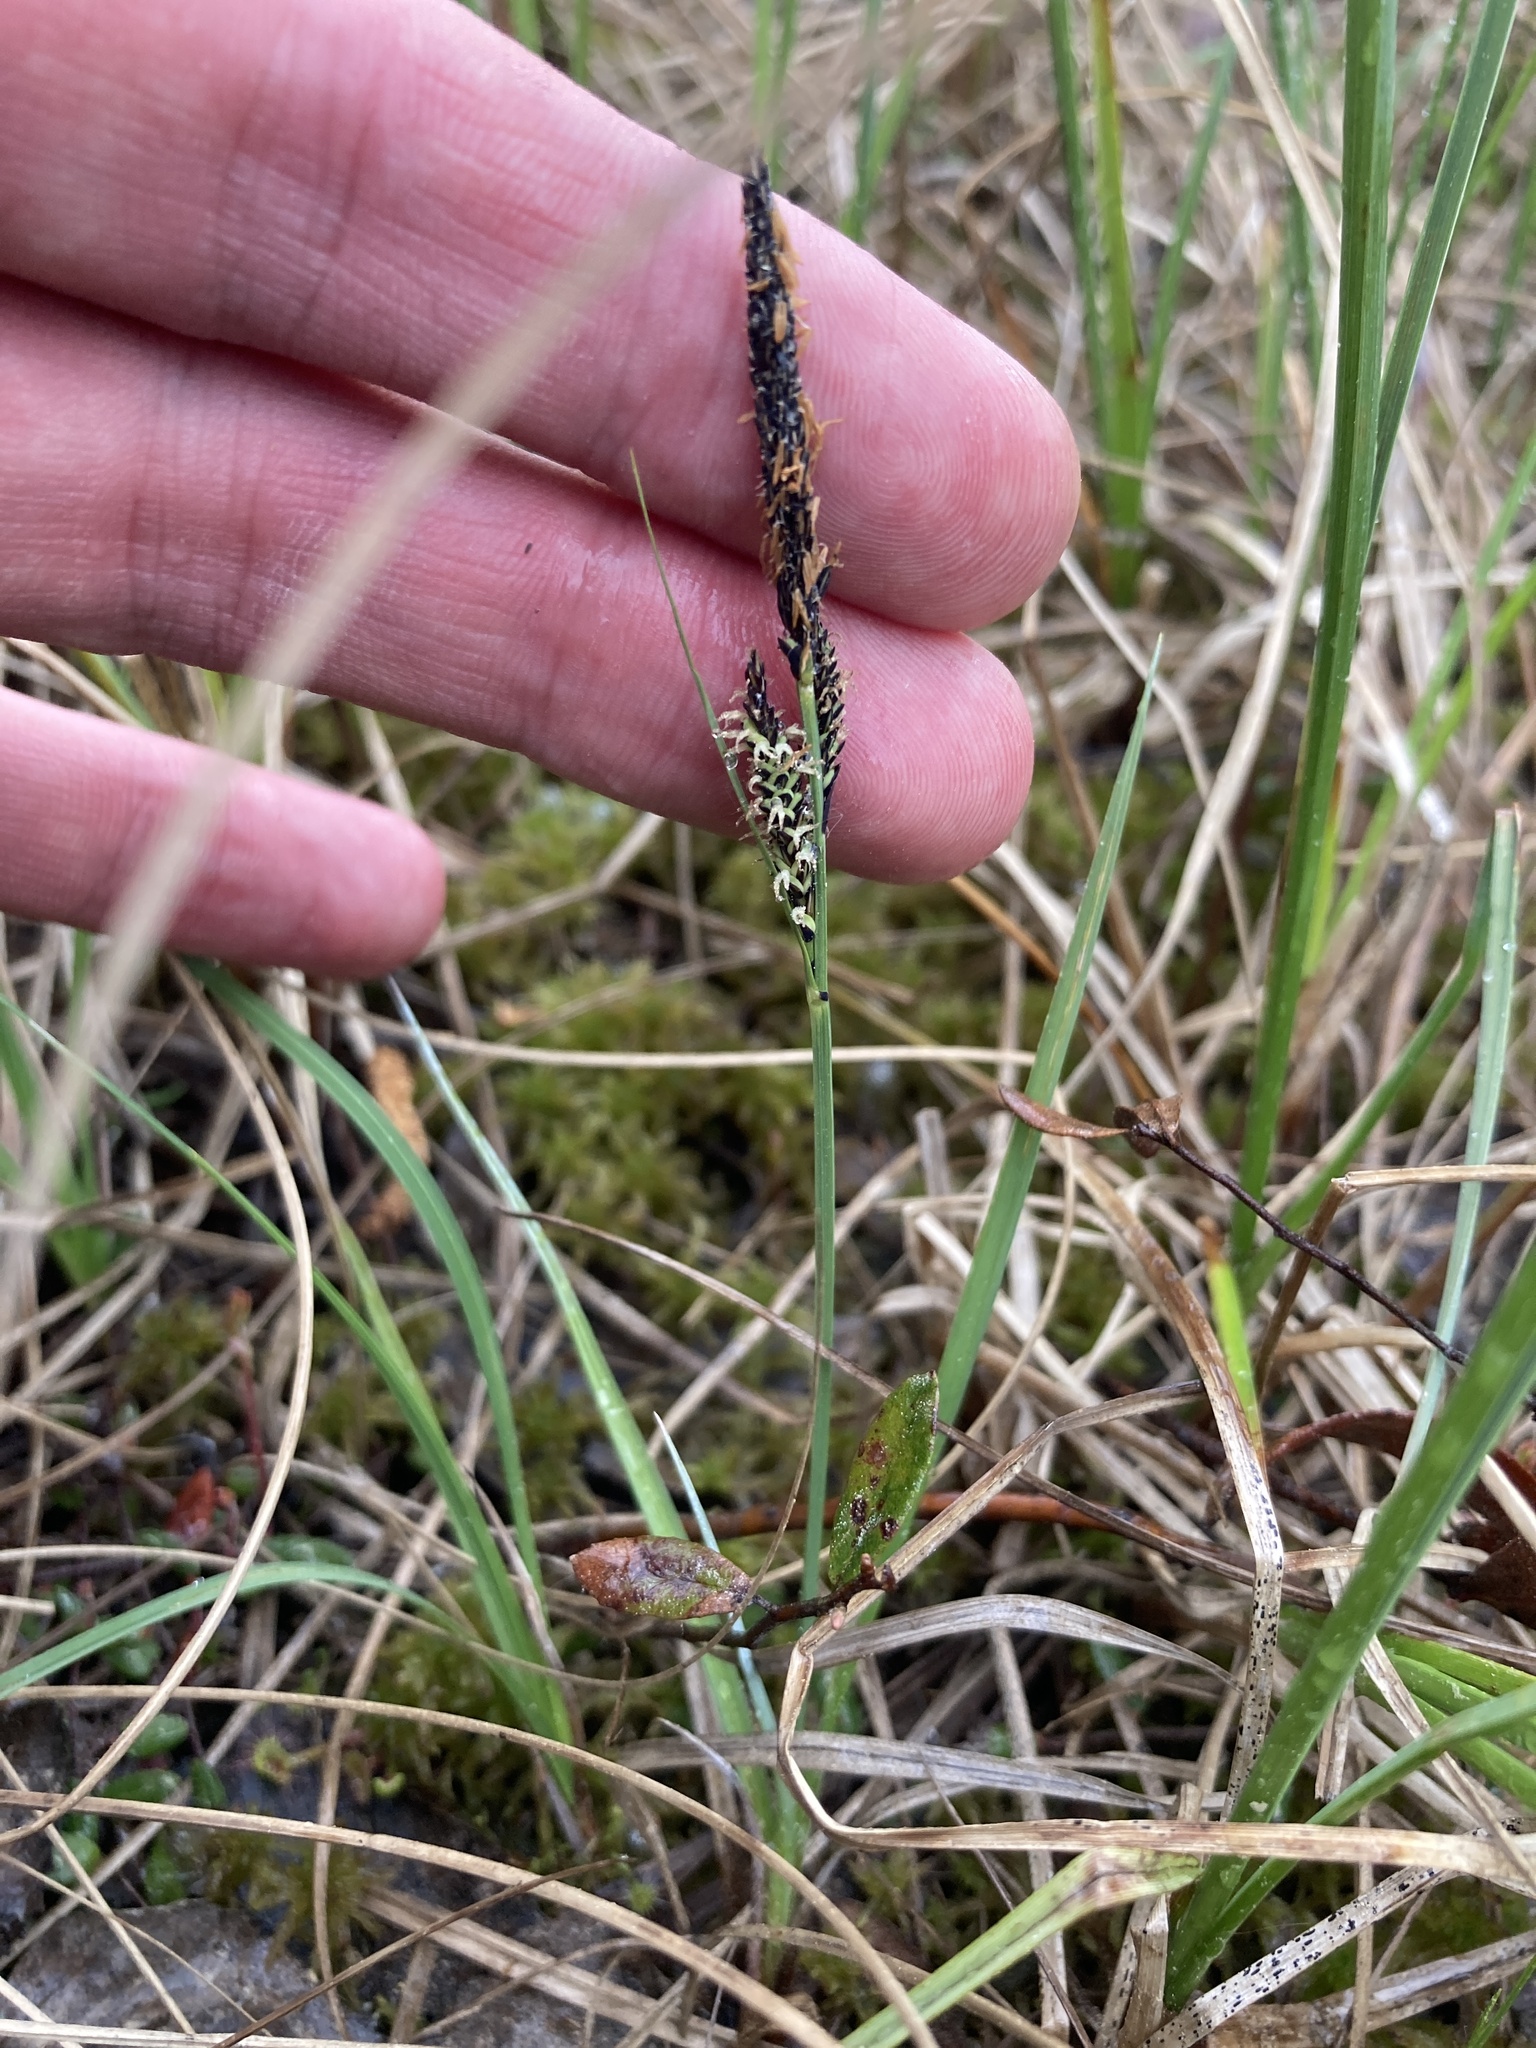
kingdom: Plantae
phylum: Tracheophyta
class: Liliopsida
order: Poales
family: Cyperaceae
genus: Carex
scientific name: Carex nigra
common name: Common sedge
